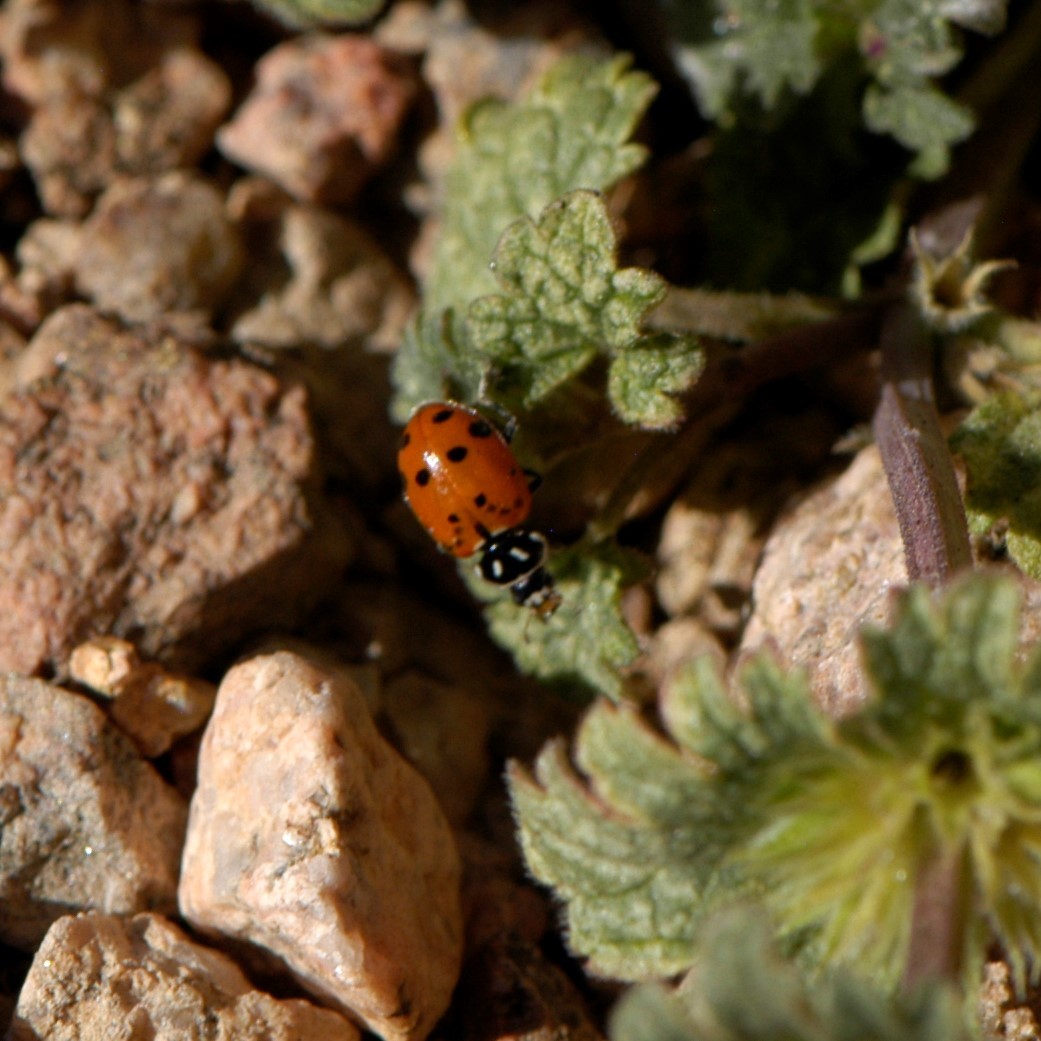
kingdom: Animalia
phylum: Arthropoda
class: Insecta
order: Coleoptera
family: Coccinellidae
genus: Hippodamia
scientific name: Hippodamia convergens
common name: Convergent lady beetle
